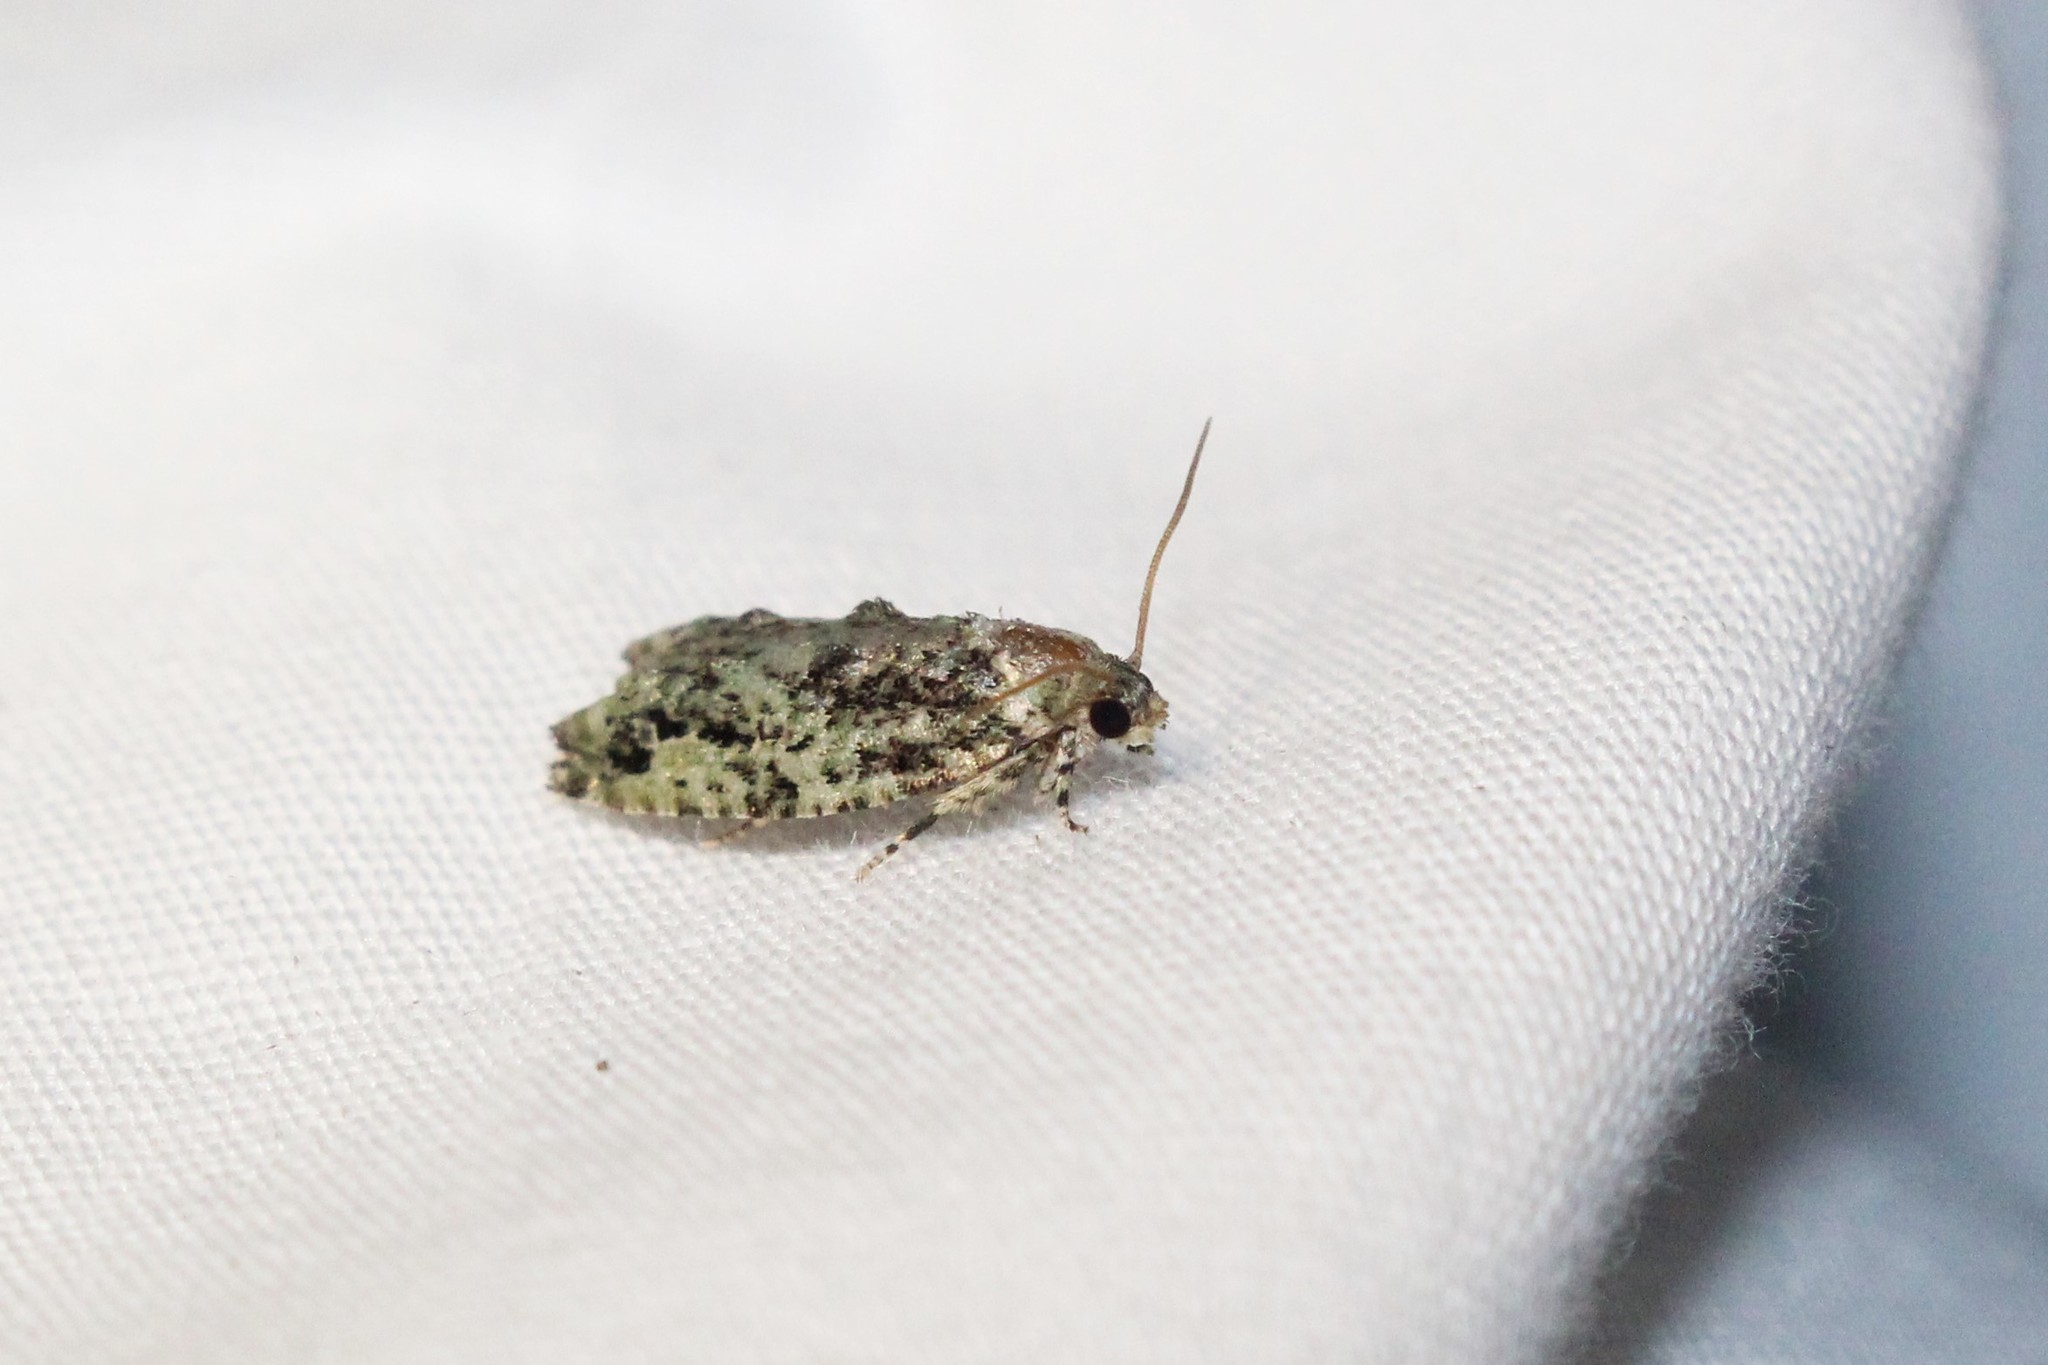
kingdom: Animalia
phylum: Arthropoda
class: Insecta
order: Lepidoptera
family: Tortricidae
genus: Proteoteras
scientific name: Proteoteras moffatiana
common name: Maple bud borer moth
